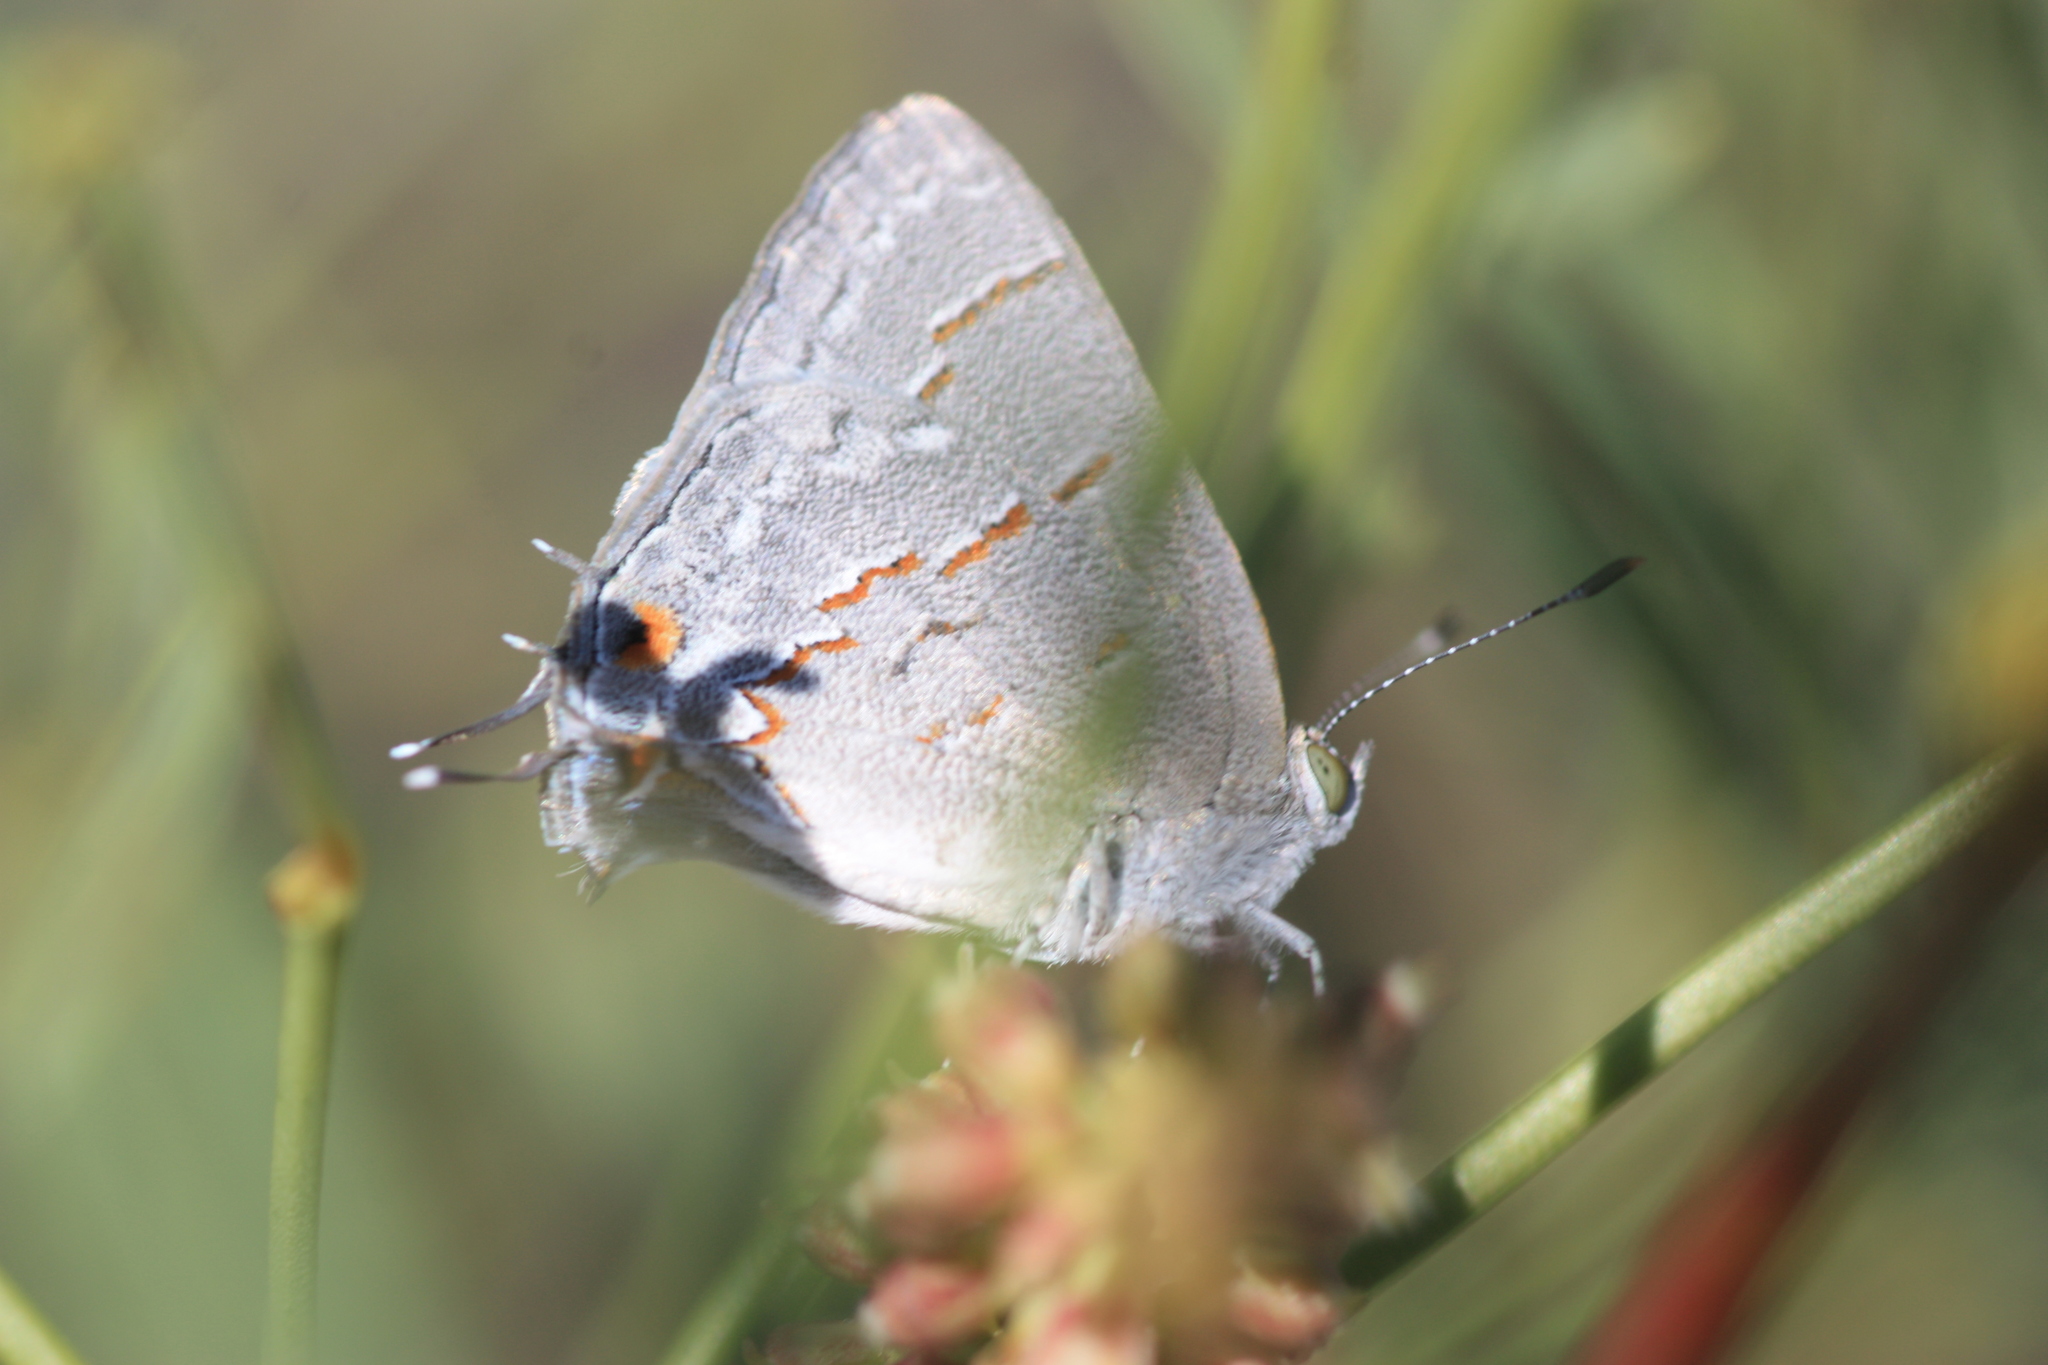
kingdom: Animalia
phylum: Arthropoda
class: Insecta
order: Lepidoptera
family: Lycaenidae
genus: Ministrymon
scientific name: Ministrymon leda
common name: Leda ministreak
